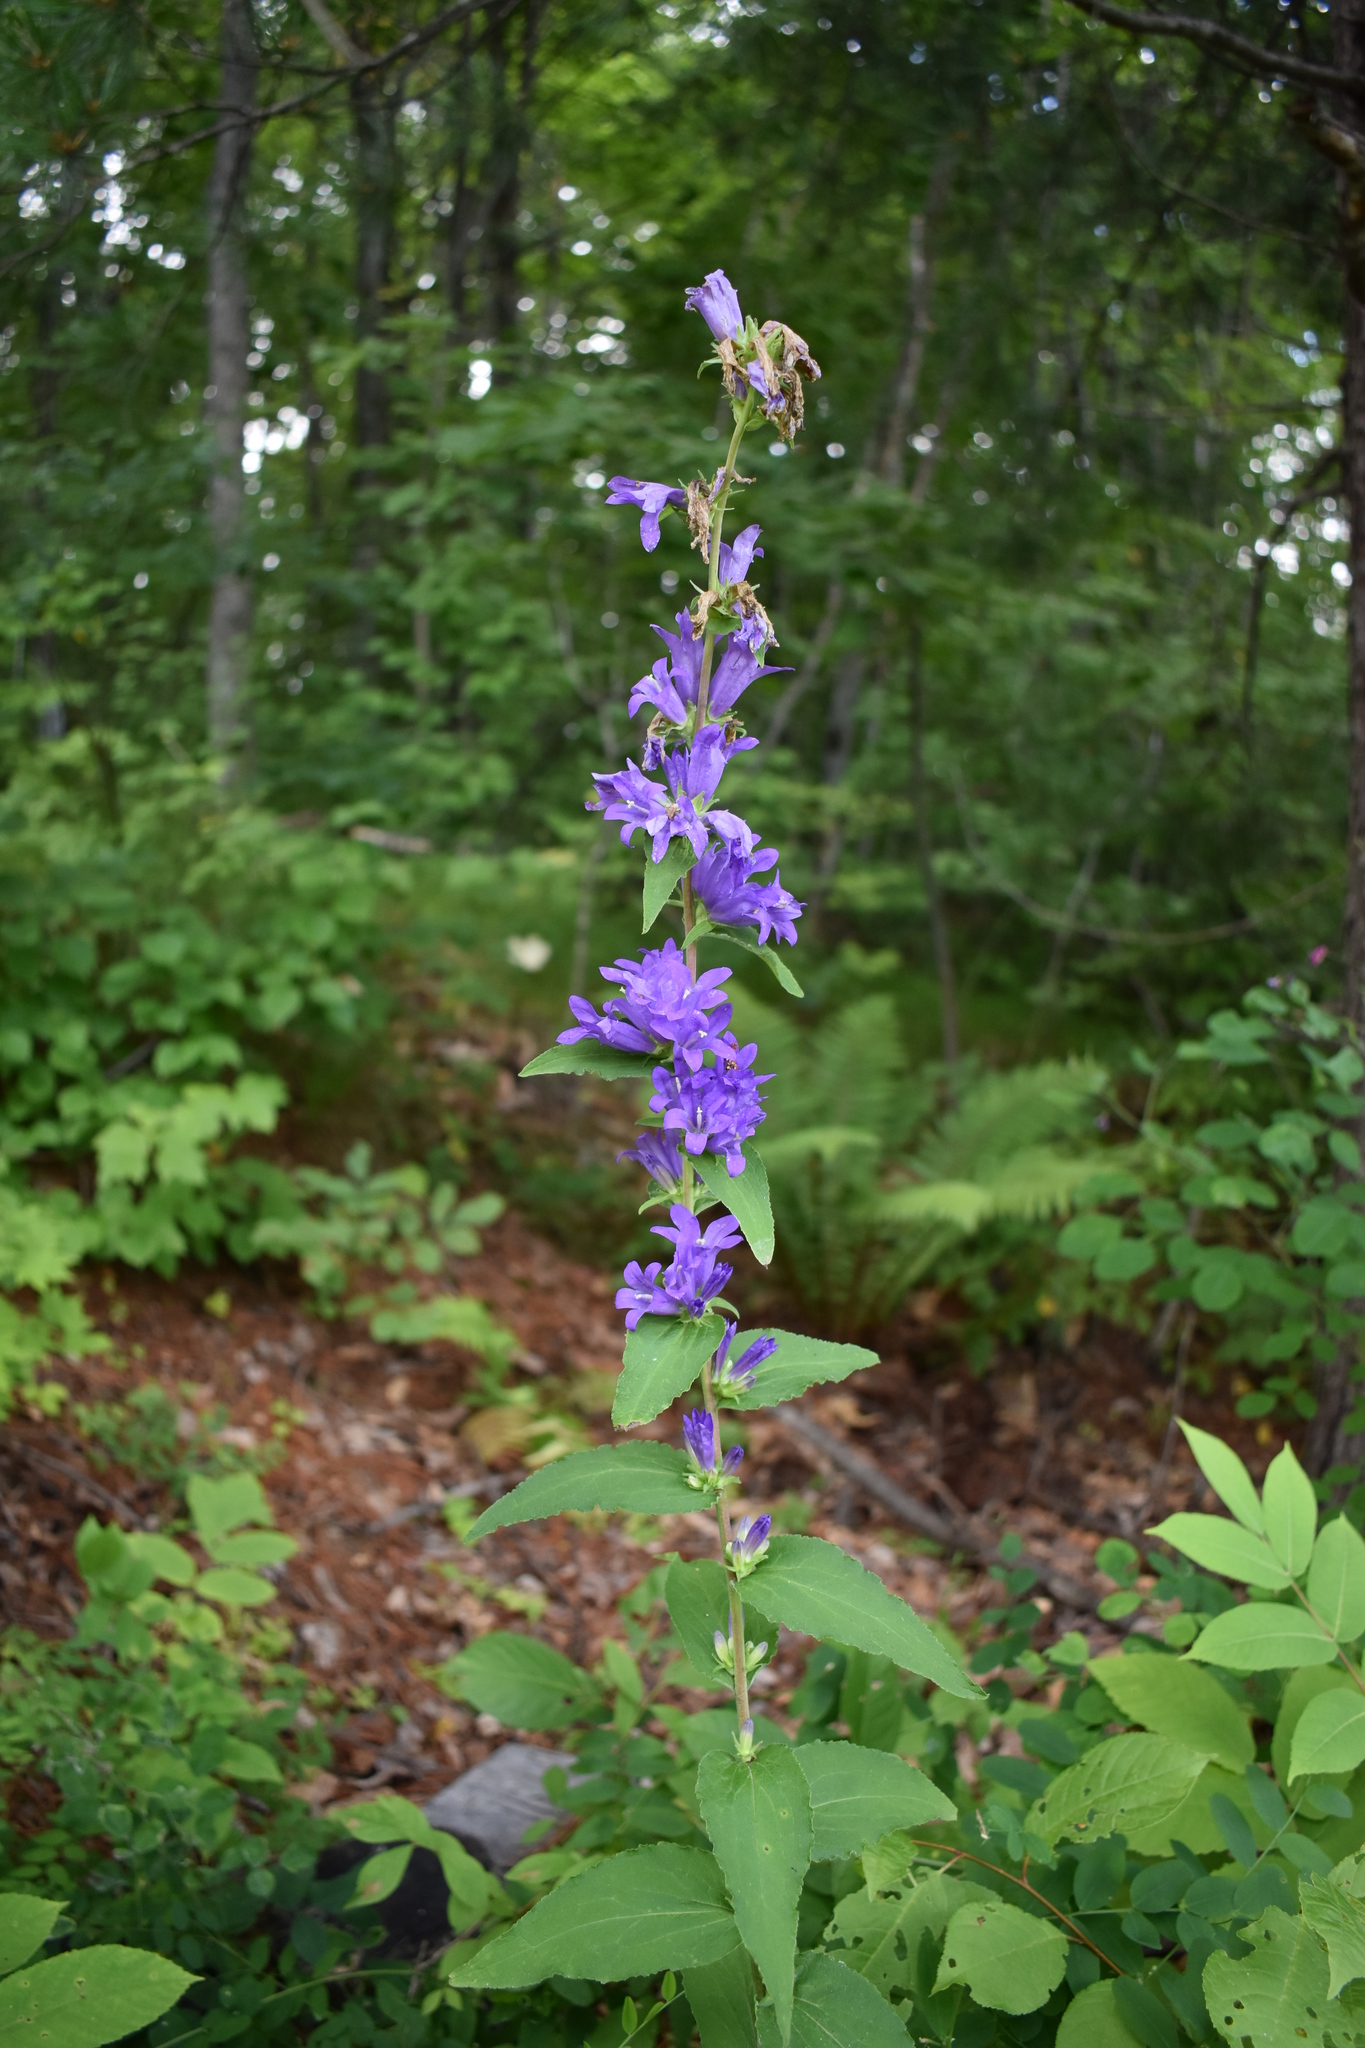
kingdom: Plantae
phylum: Tracheophyta
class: Magnoliopsida
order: Asterales
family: Campanulaceae
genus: Campanula
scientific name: Campanula glomerata
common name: Clustered bellflower
